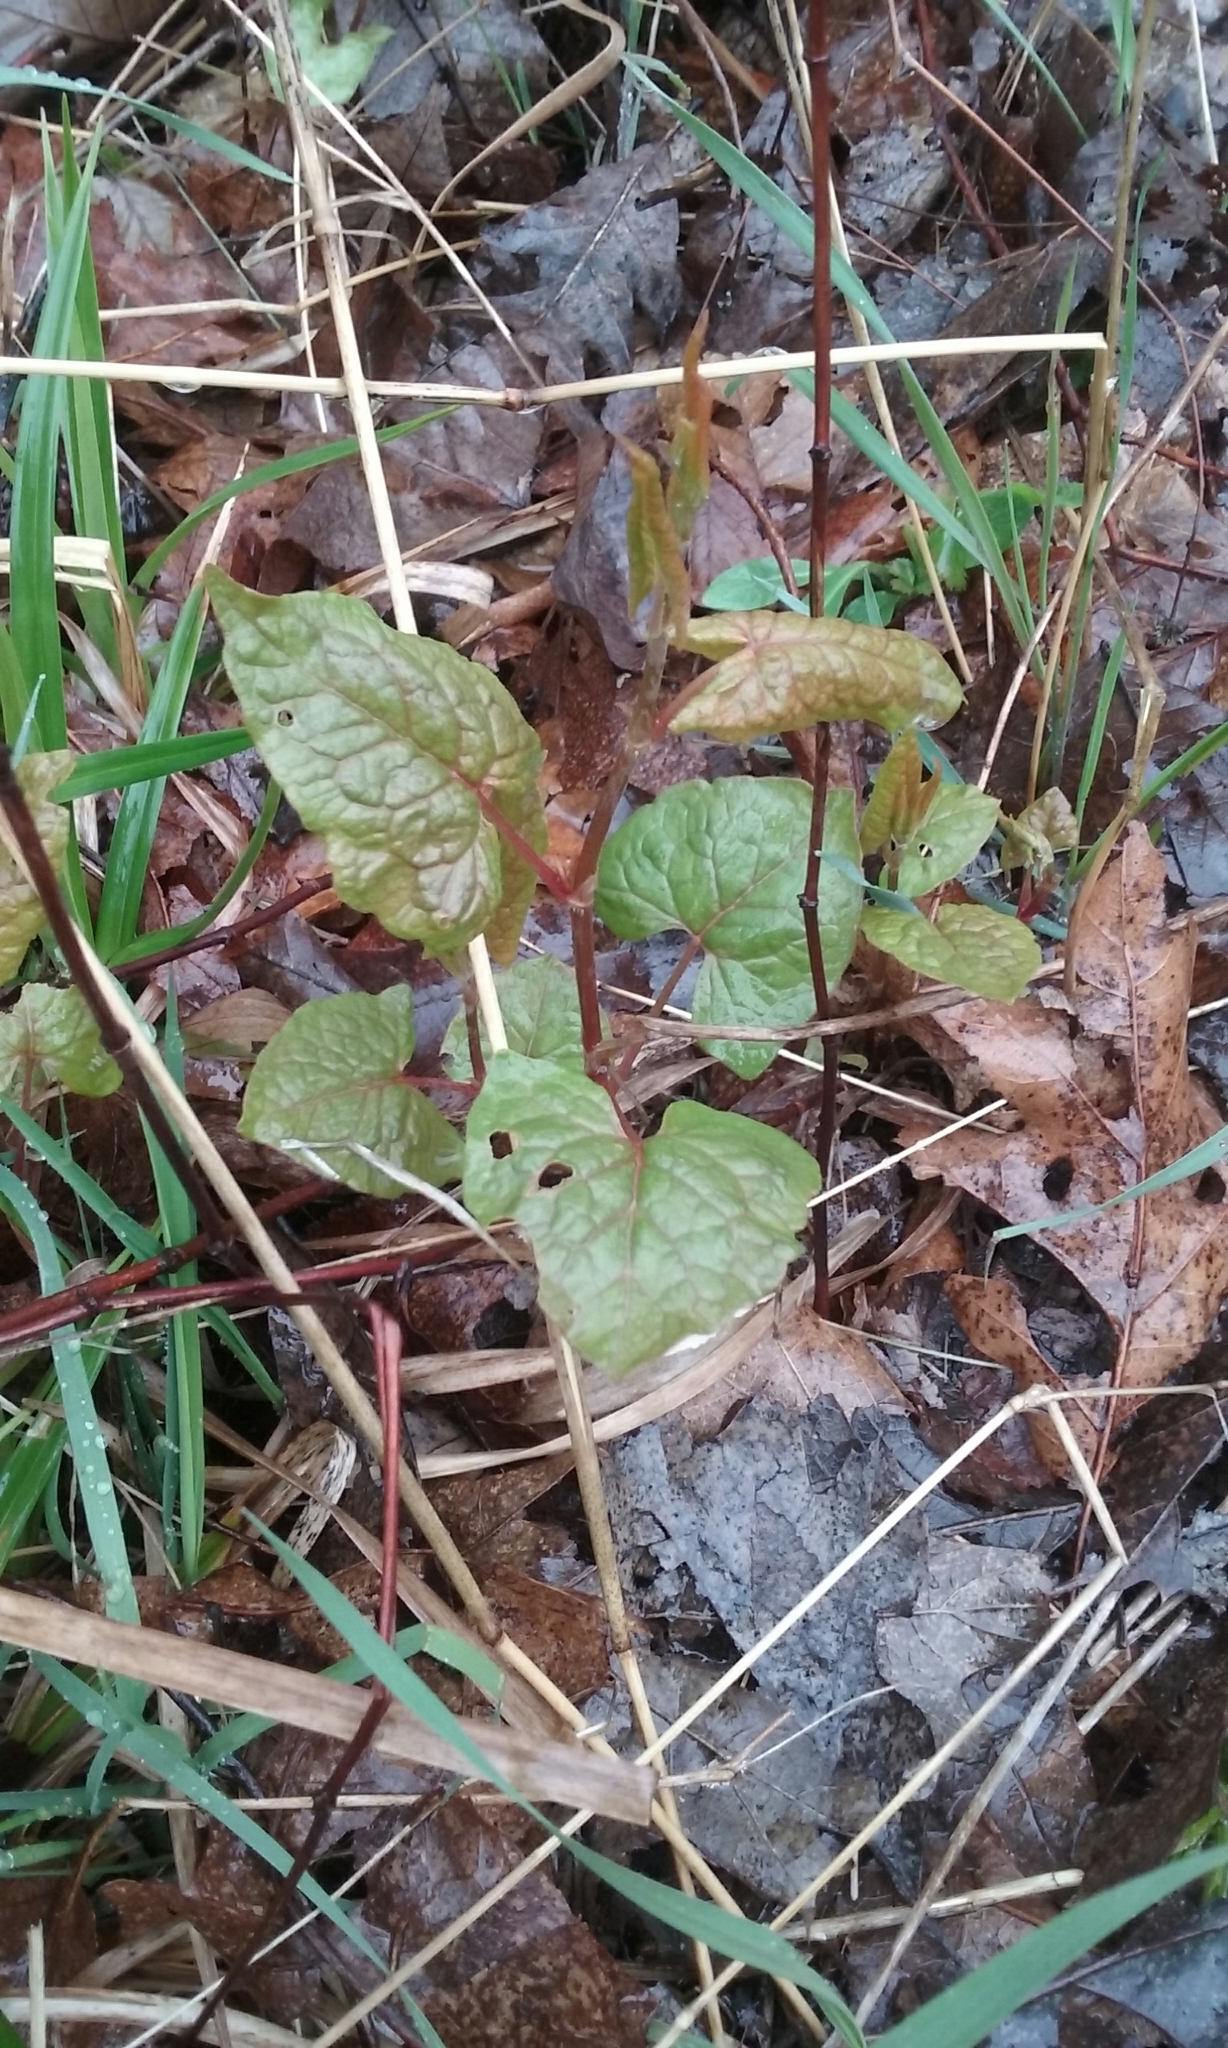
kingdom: Plantae
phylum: Tracheophyta
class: Magnoliopsida
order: Caryophyllales
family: Polygonaceae
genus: Reynoutria
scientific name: Reynoutria japonica
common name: Japanese knotweed
